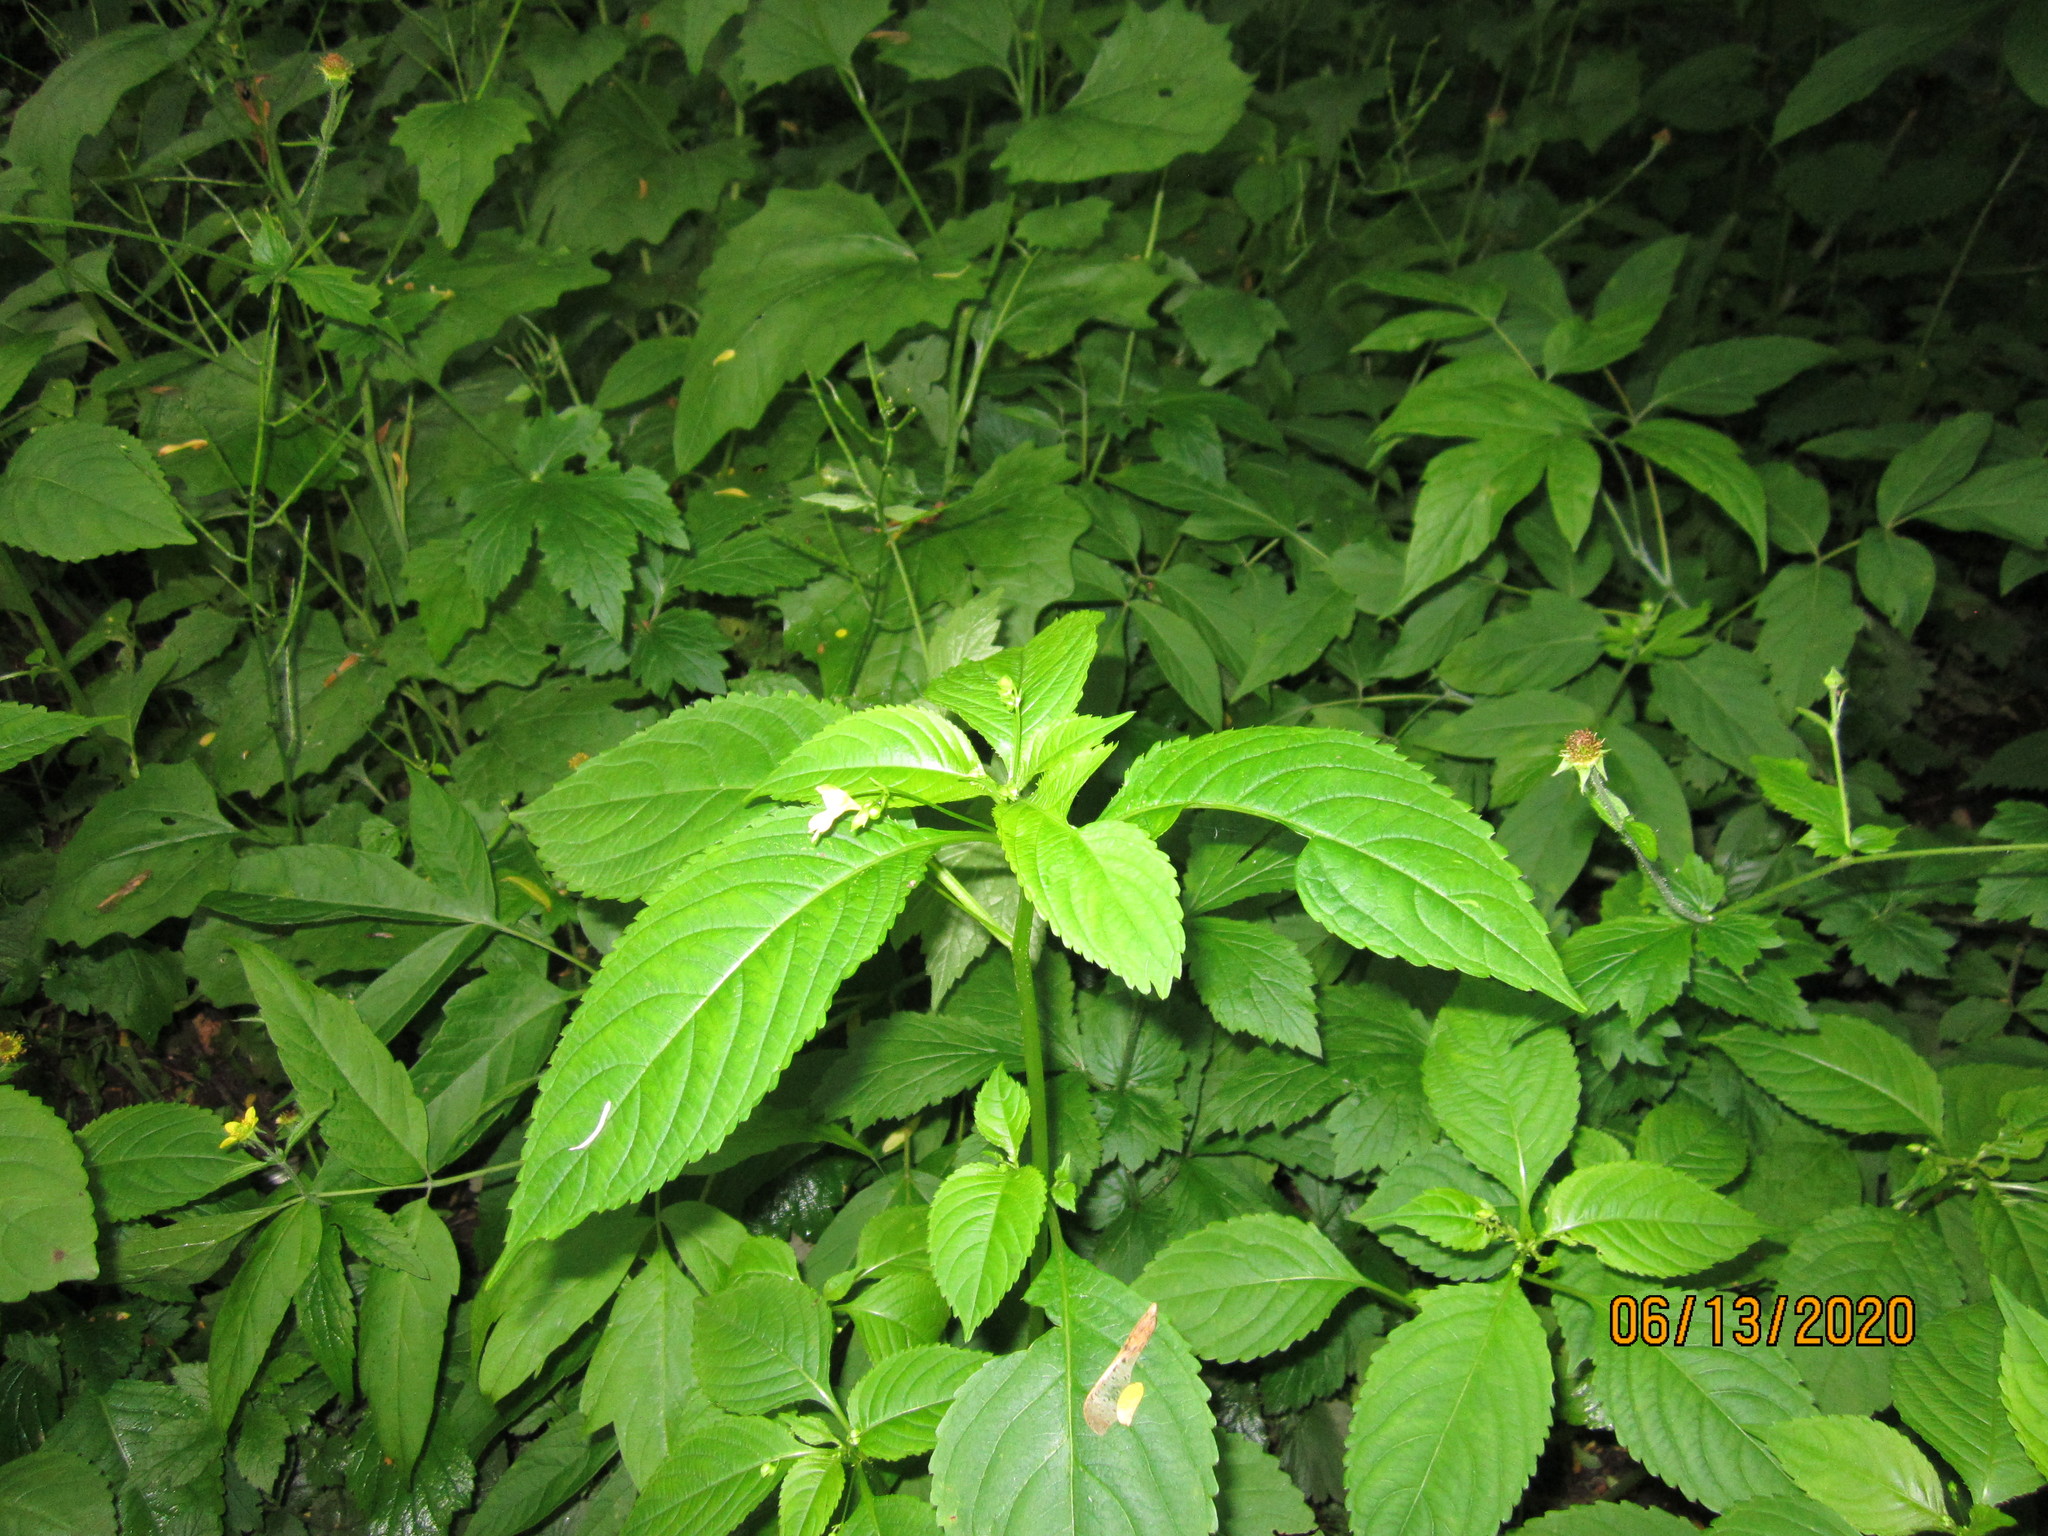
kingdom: Plantae
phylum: Tracheophyta
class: Magnoliopsida
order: Ericales
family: Balsaminaceae
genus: Impatiens
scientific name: Impatiens parviflora
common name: Small balsam
